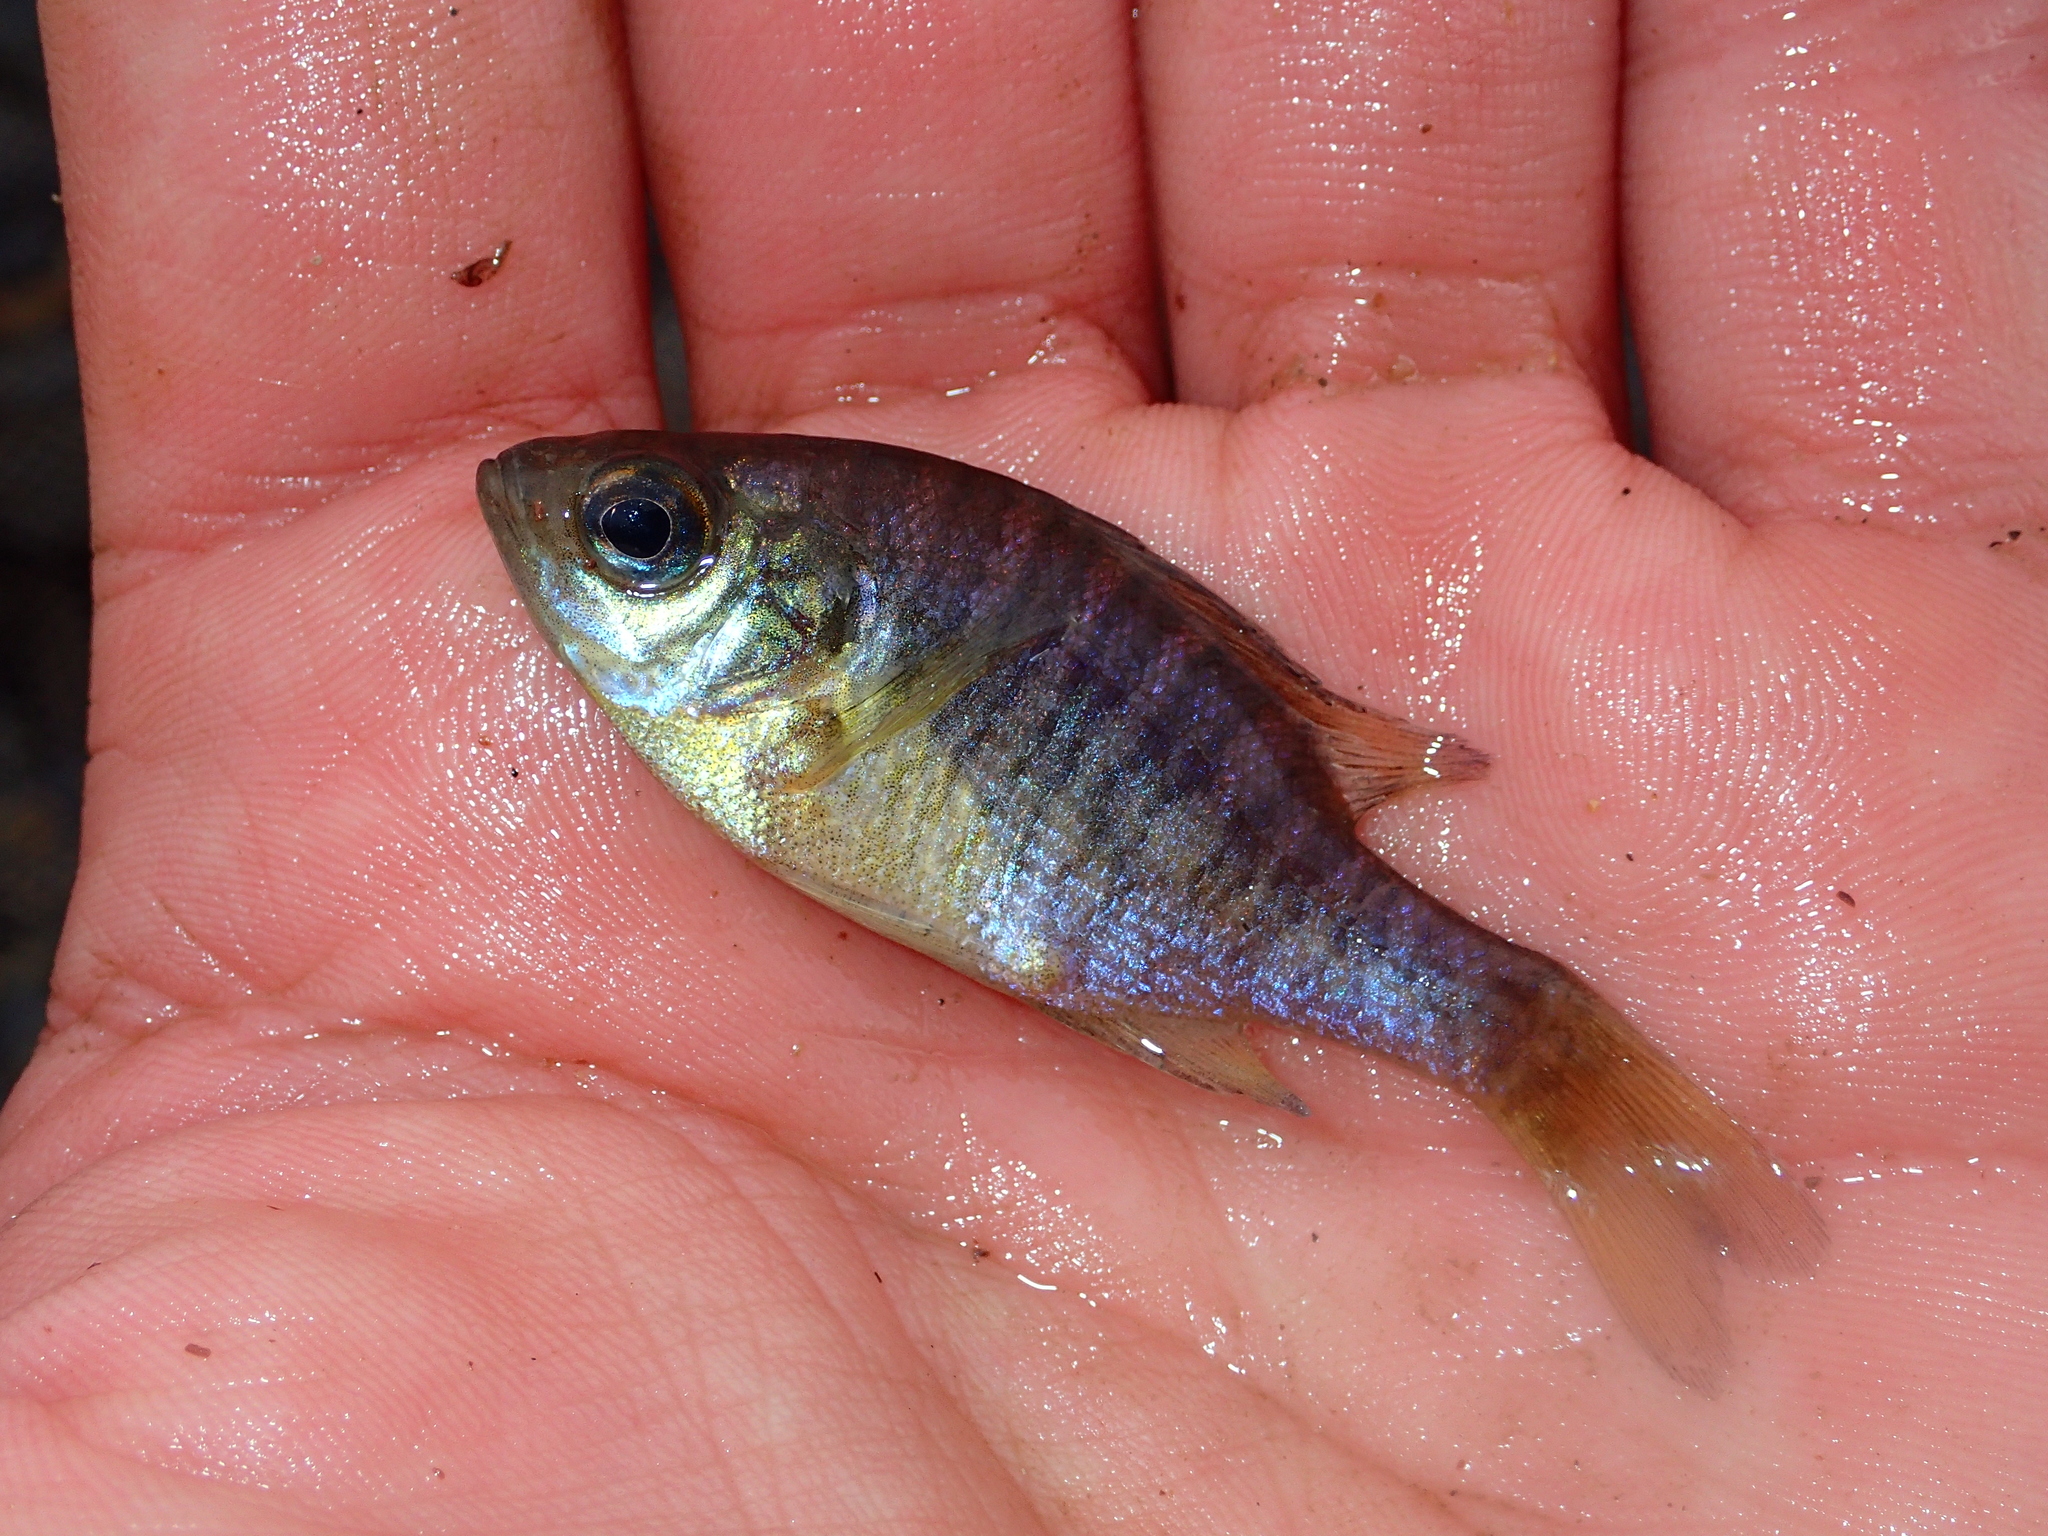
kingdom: Animalia
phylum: Chordata
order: Perciformes
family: Centrarchidae
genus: Lepomis
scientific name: Lepomis macrochirus
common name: Bluegill
